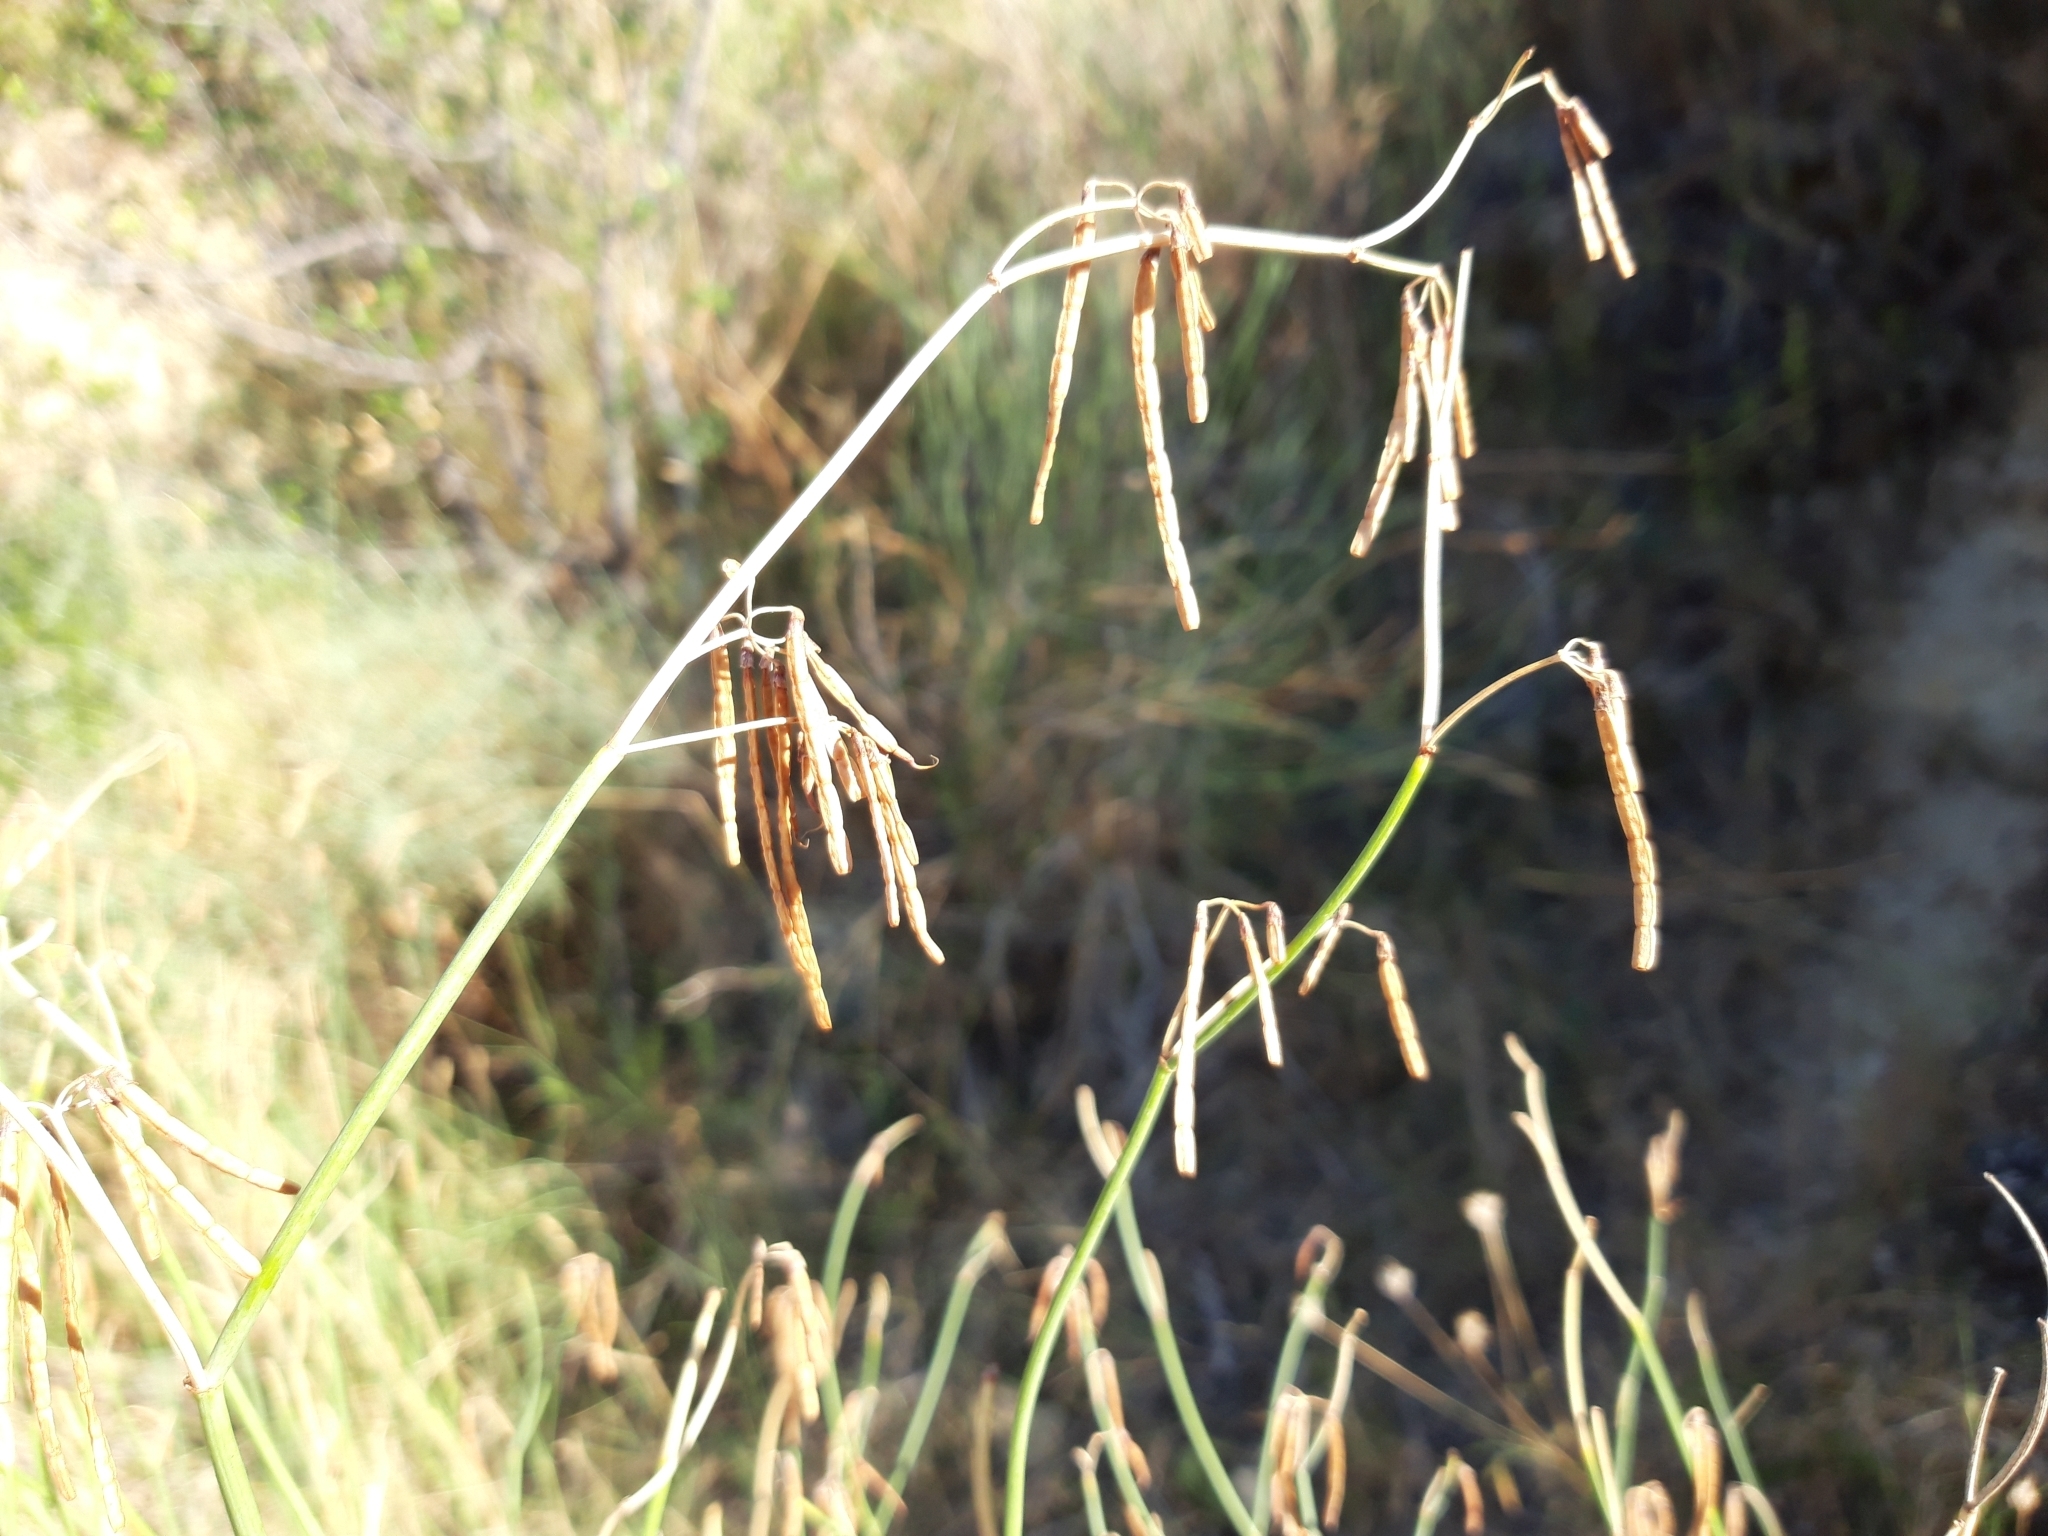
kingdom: Plantae
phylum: Tracheophyta
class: Magnoliopsida
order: Fabales
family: Fabaceae
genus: Coronilla
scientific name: Coronilla juncea
